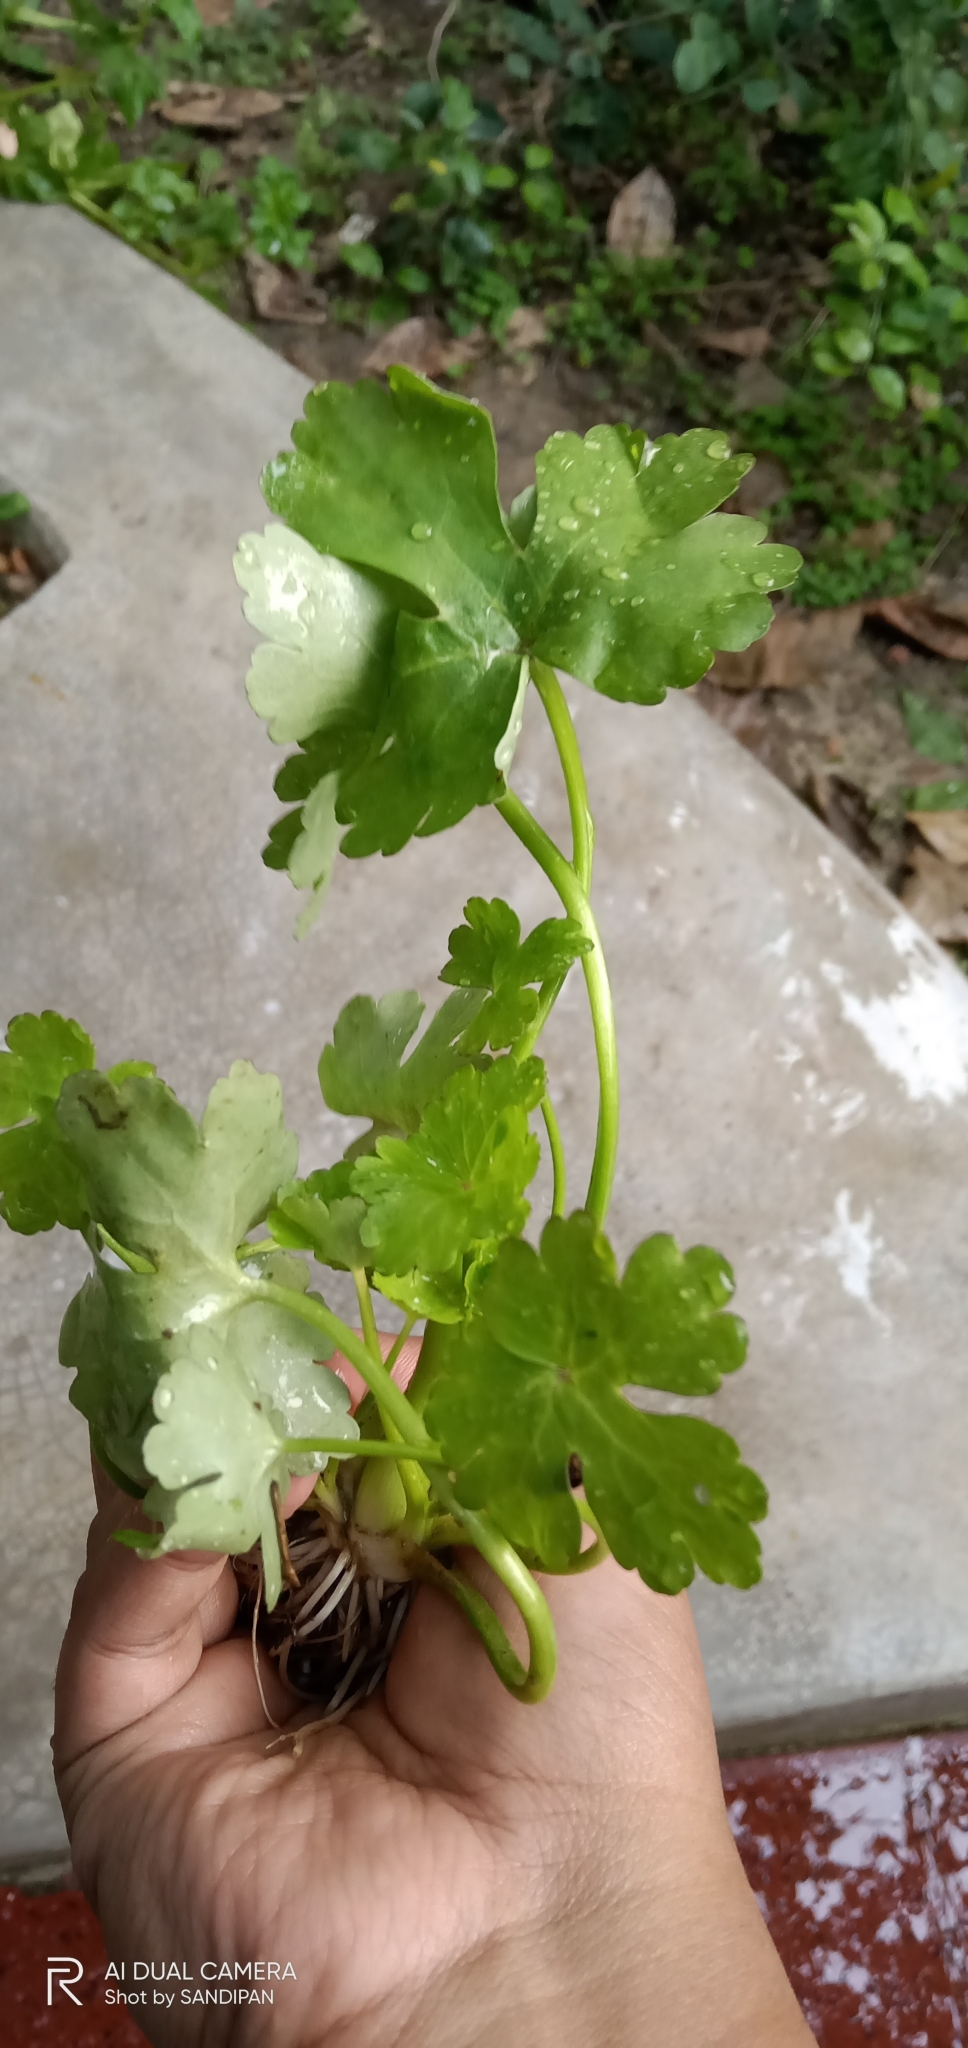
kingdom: Plantae
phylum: Tracheophyta
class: Magnoliopsida
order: Ranunculales
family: Ranunculaceae
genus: Ranunculus
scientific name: Ranunculus sceleratus
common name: Celery-leaved buttercup
